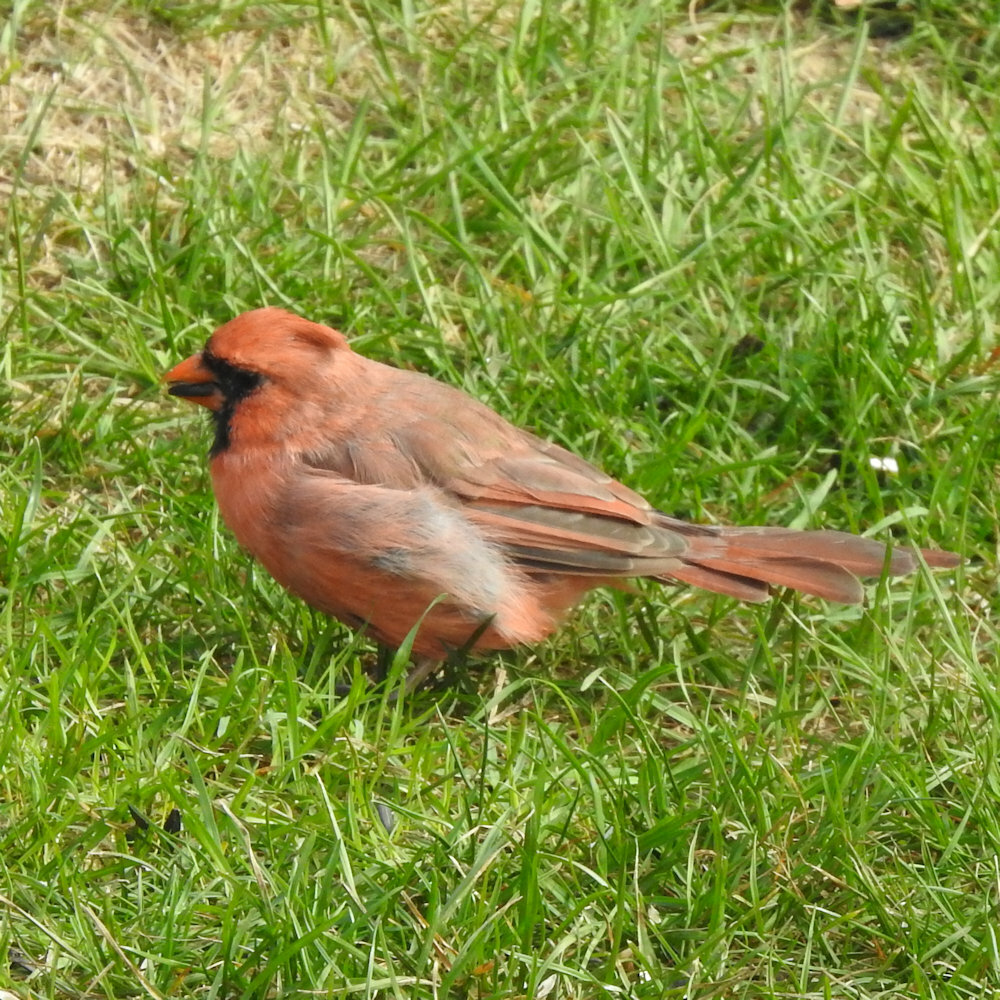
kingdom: Animalia
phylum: Chordata
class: Aves
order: Passeriformes
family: Cardinalidae
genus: Cardinalis
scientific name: Cardinalis cardinalis
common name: Northern cardinal
